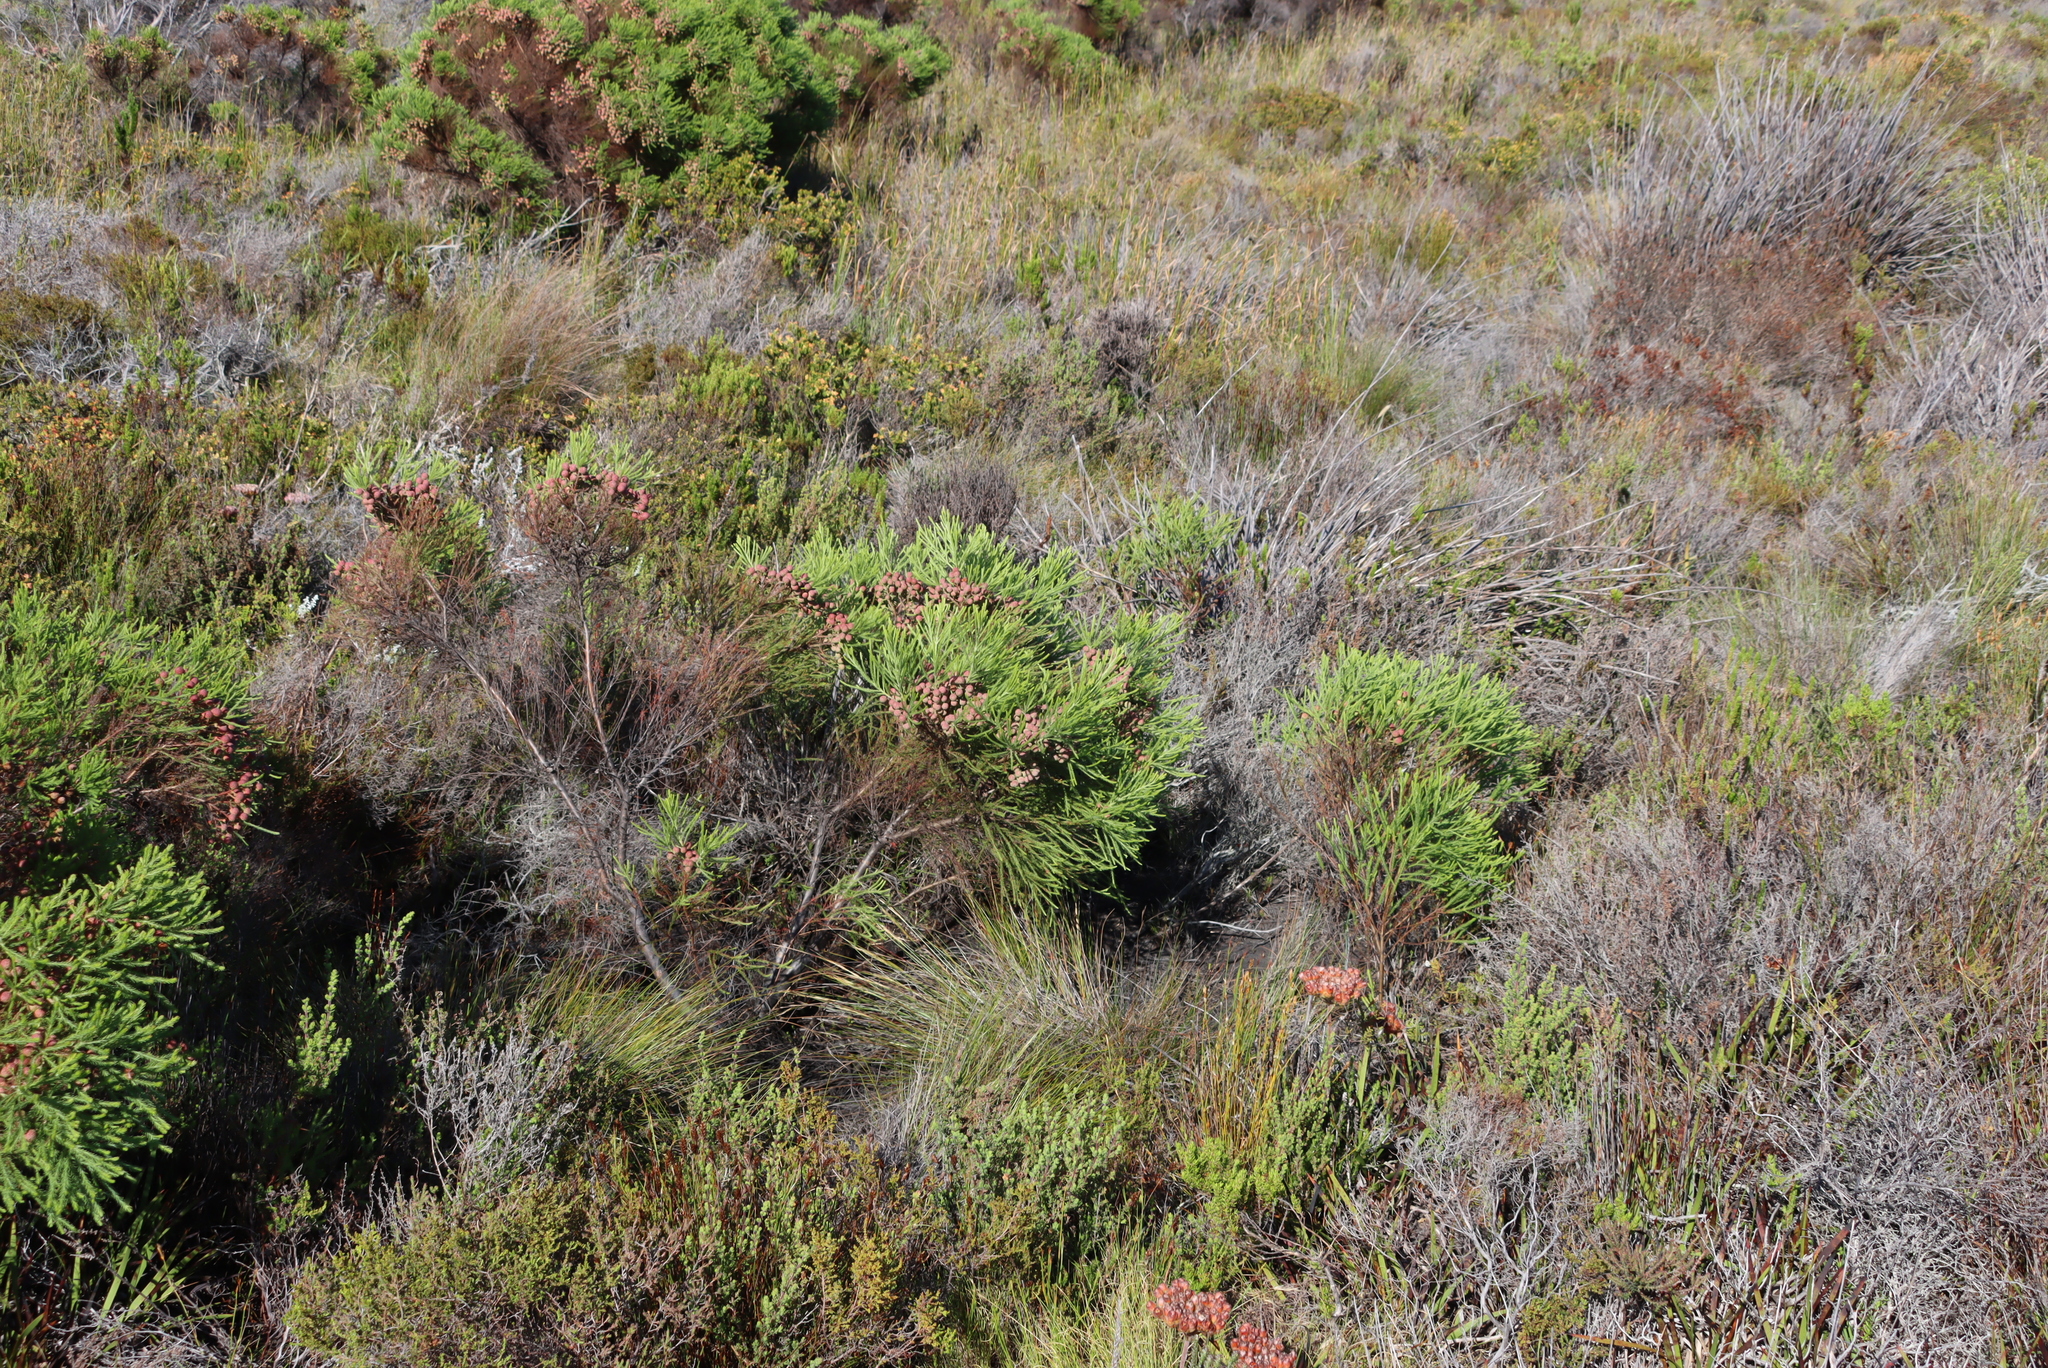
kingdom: Plantae
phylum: Tracheophyta
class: Magnoliopsida
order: Bruniales
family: Bruniaceae
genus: Berzelia
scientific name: Berzelia lanuginosa
